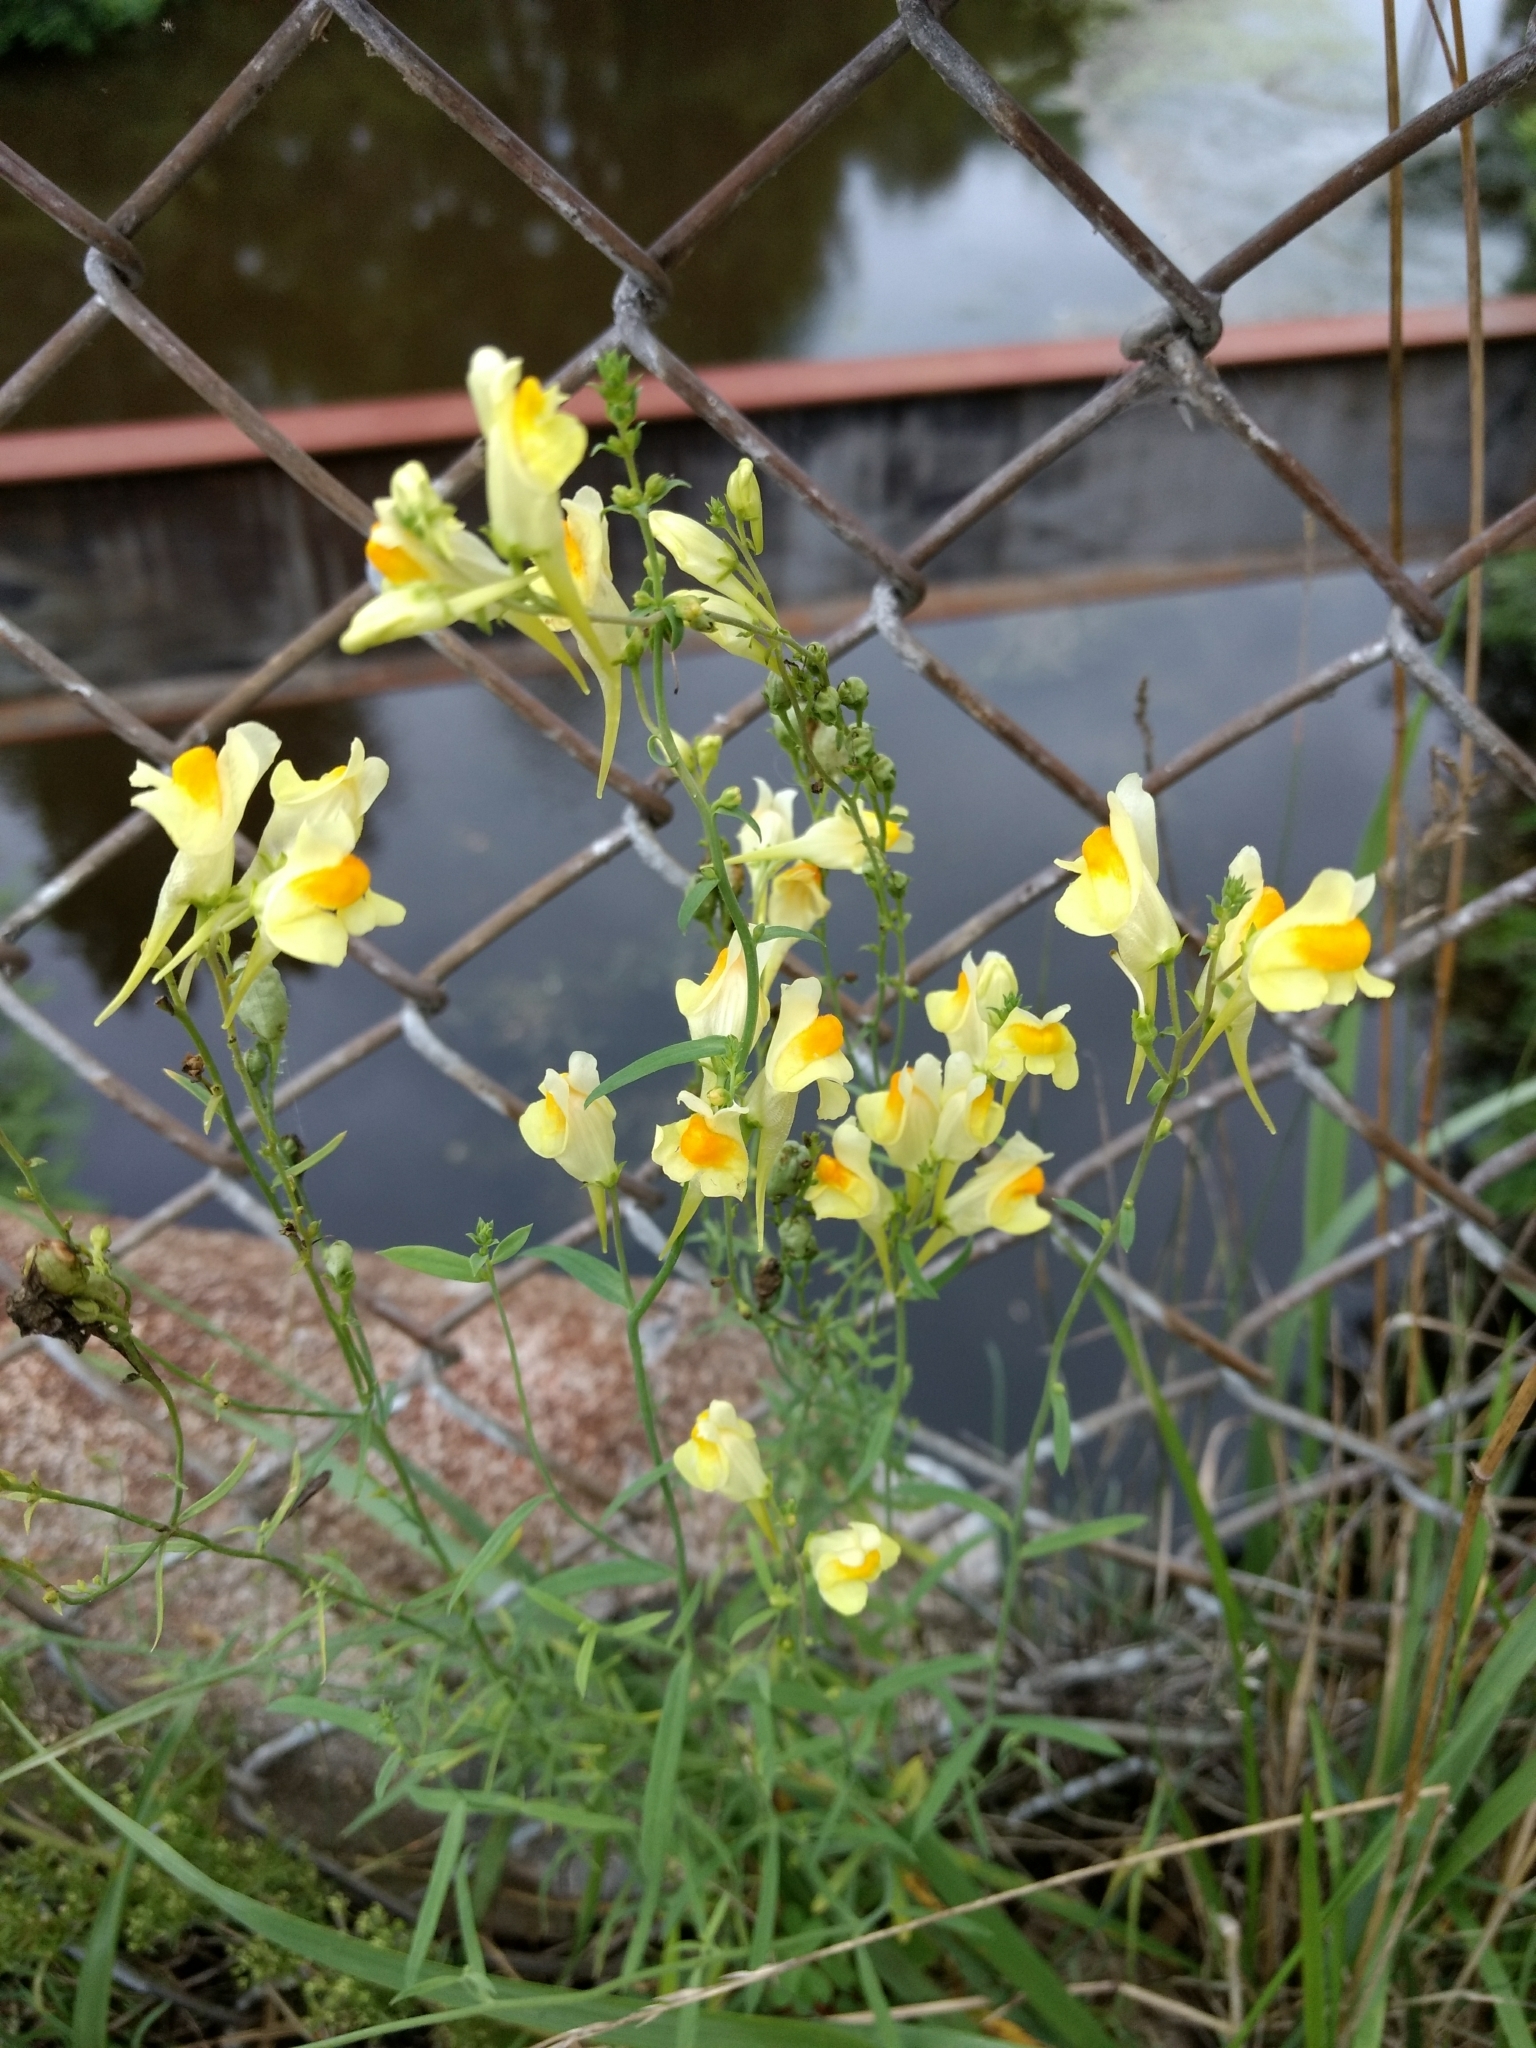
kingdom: Plantae
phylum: Tracheophyta
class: Magnoliopsida
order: Lamiales
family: Plantaginaceae
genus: Linaria
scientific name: Linaria vulgaris
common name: Butter and eggs
